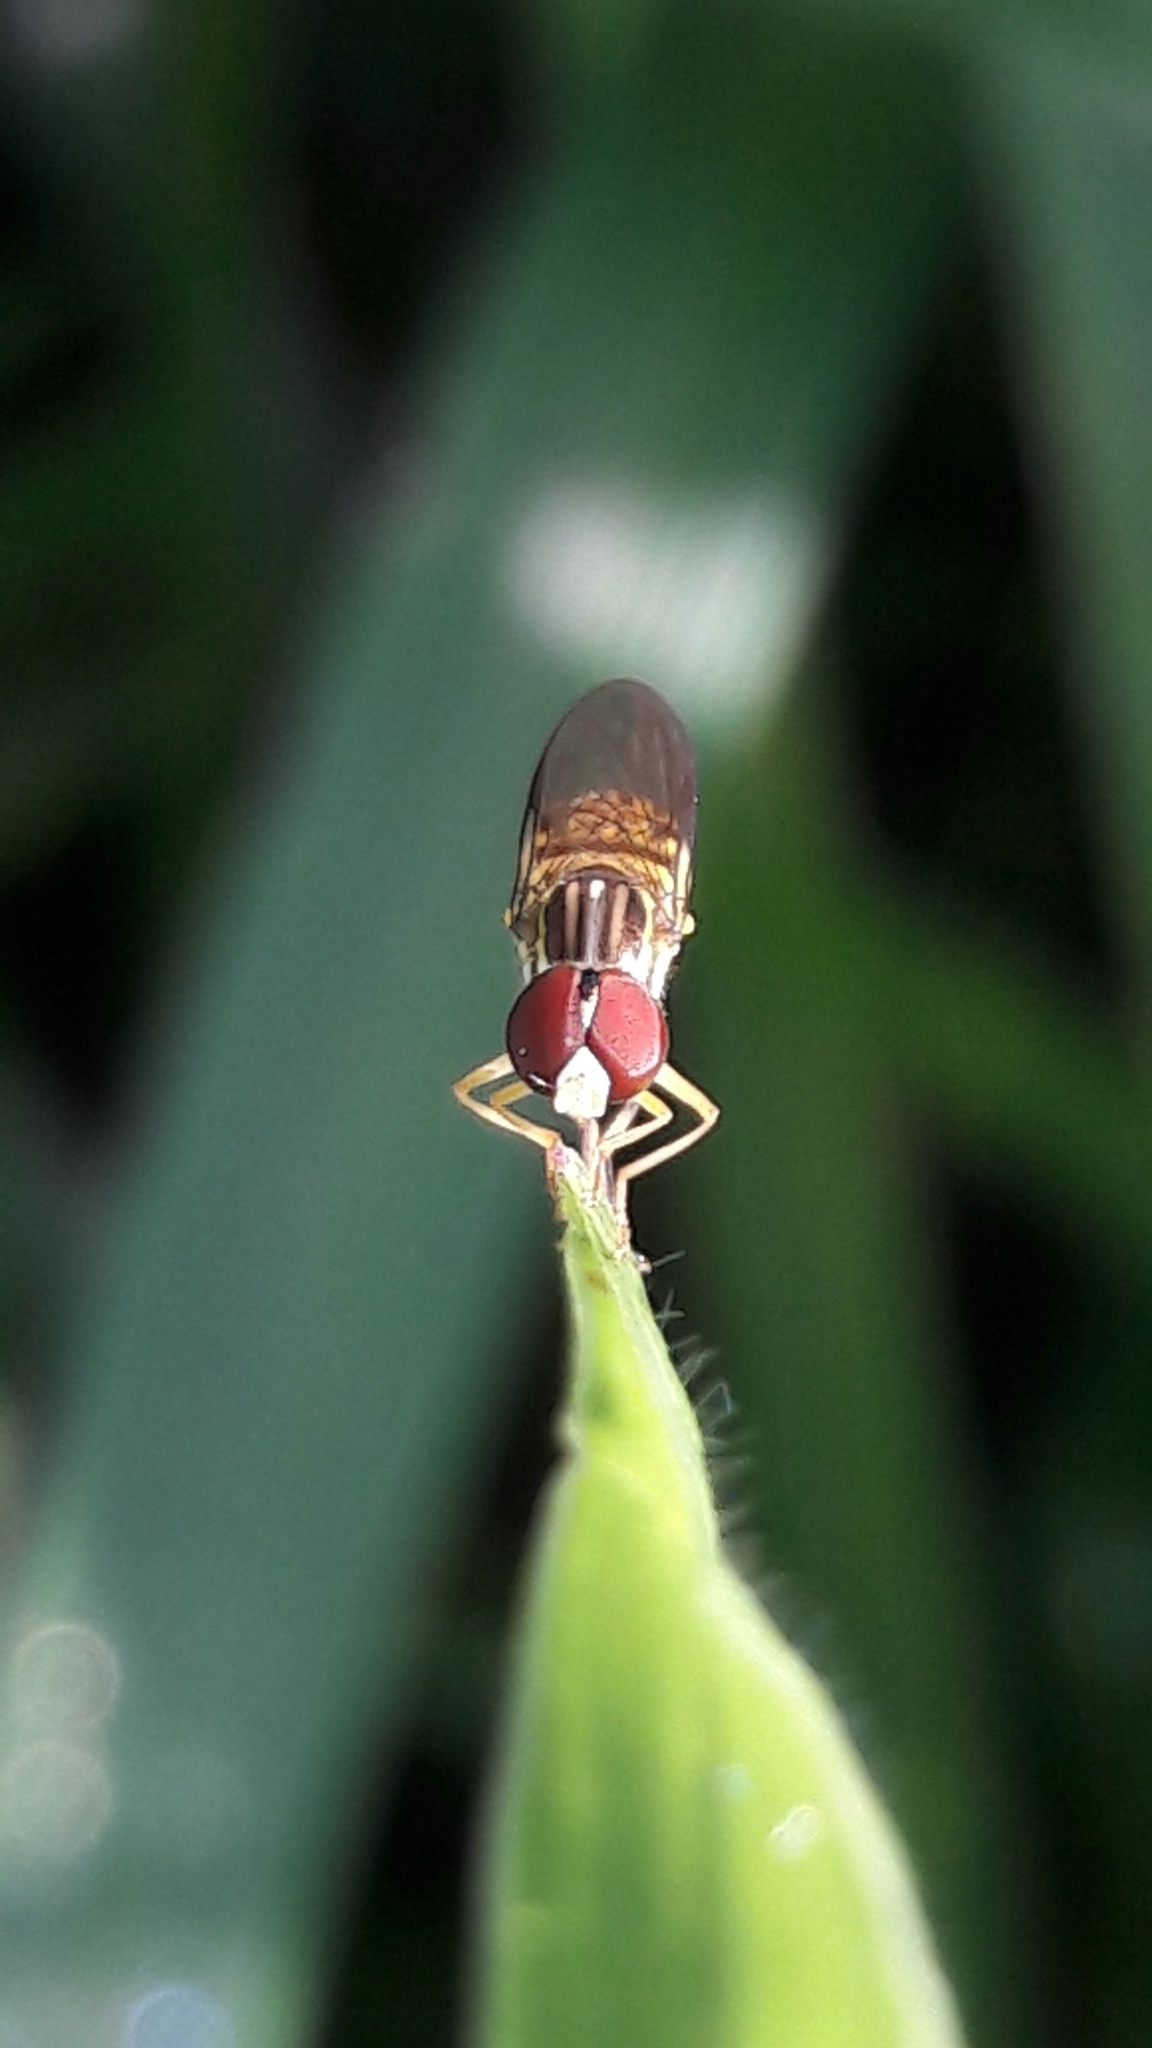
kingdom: Animalia
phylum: Arthropoda
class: Insecta
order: Diptera
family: Syrphidae
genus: Toxomerus
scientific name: Toxomerus
